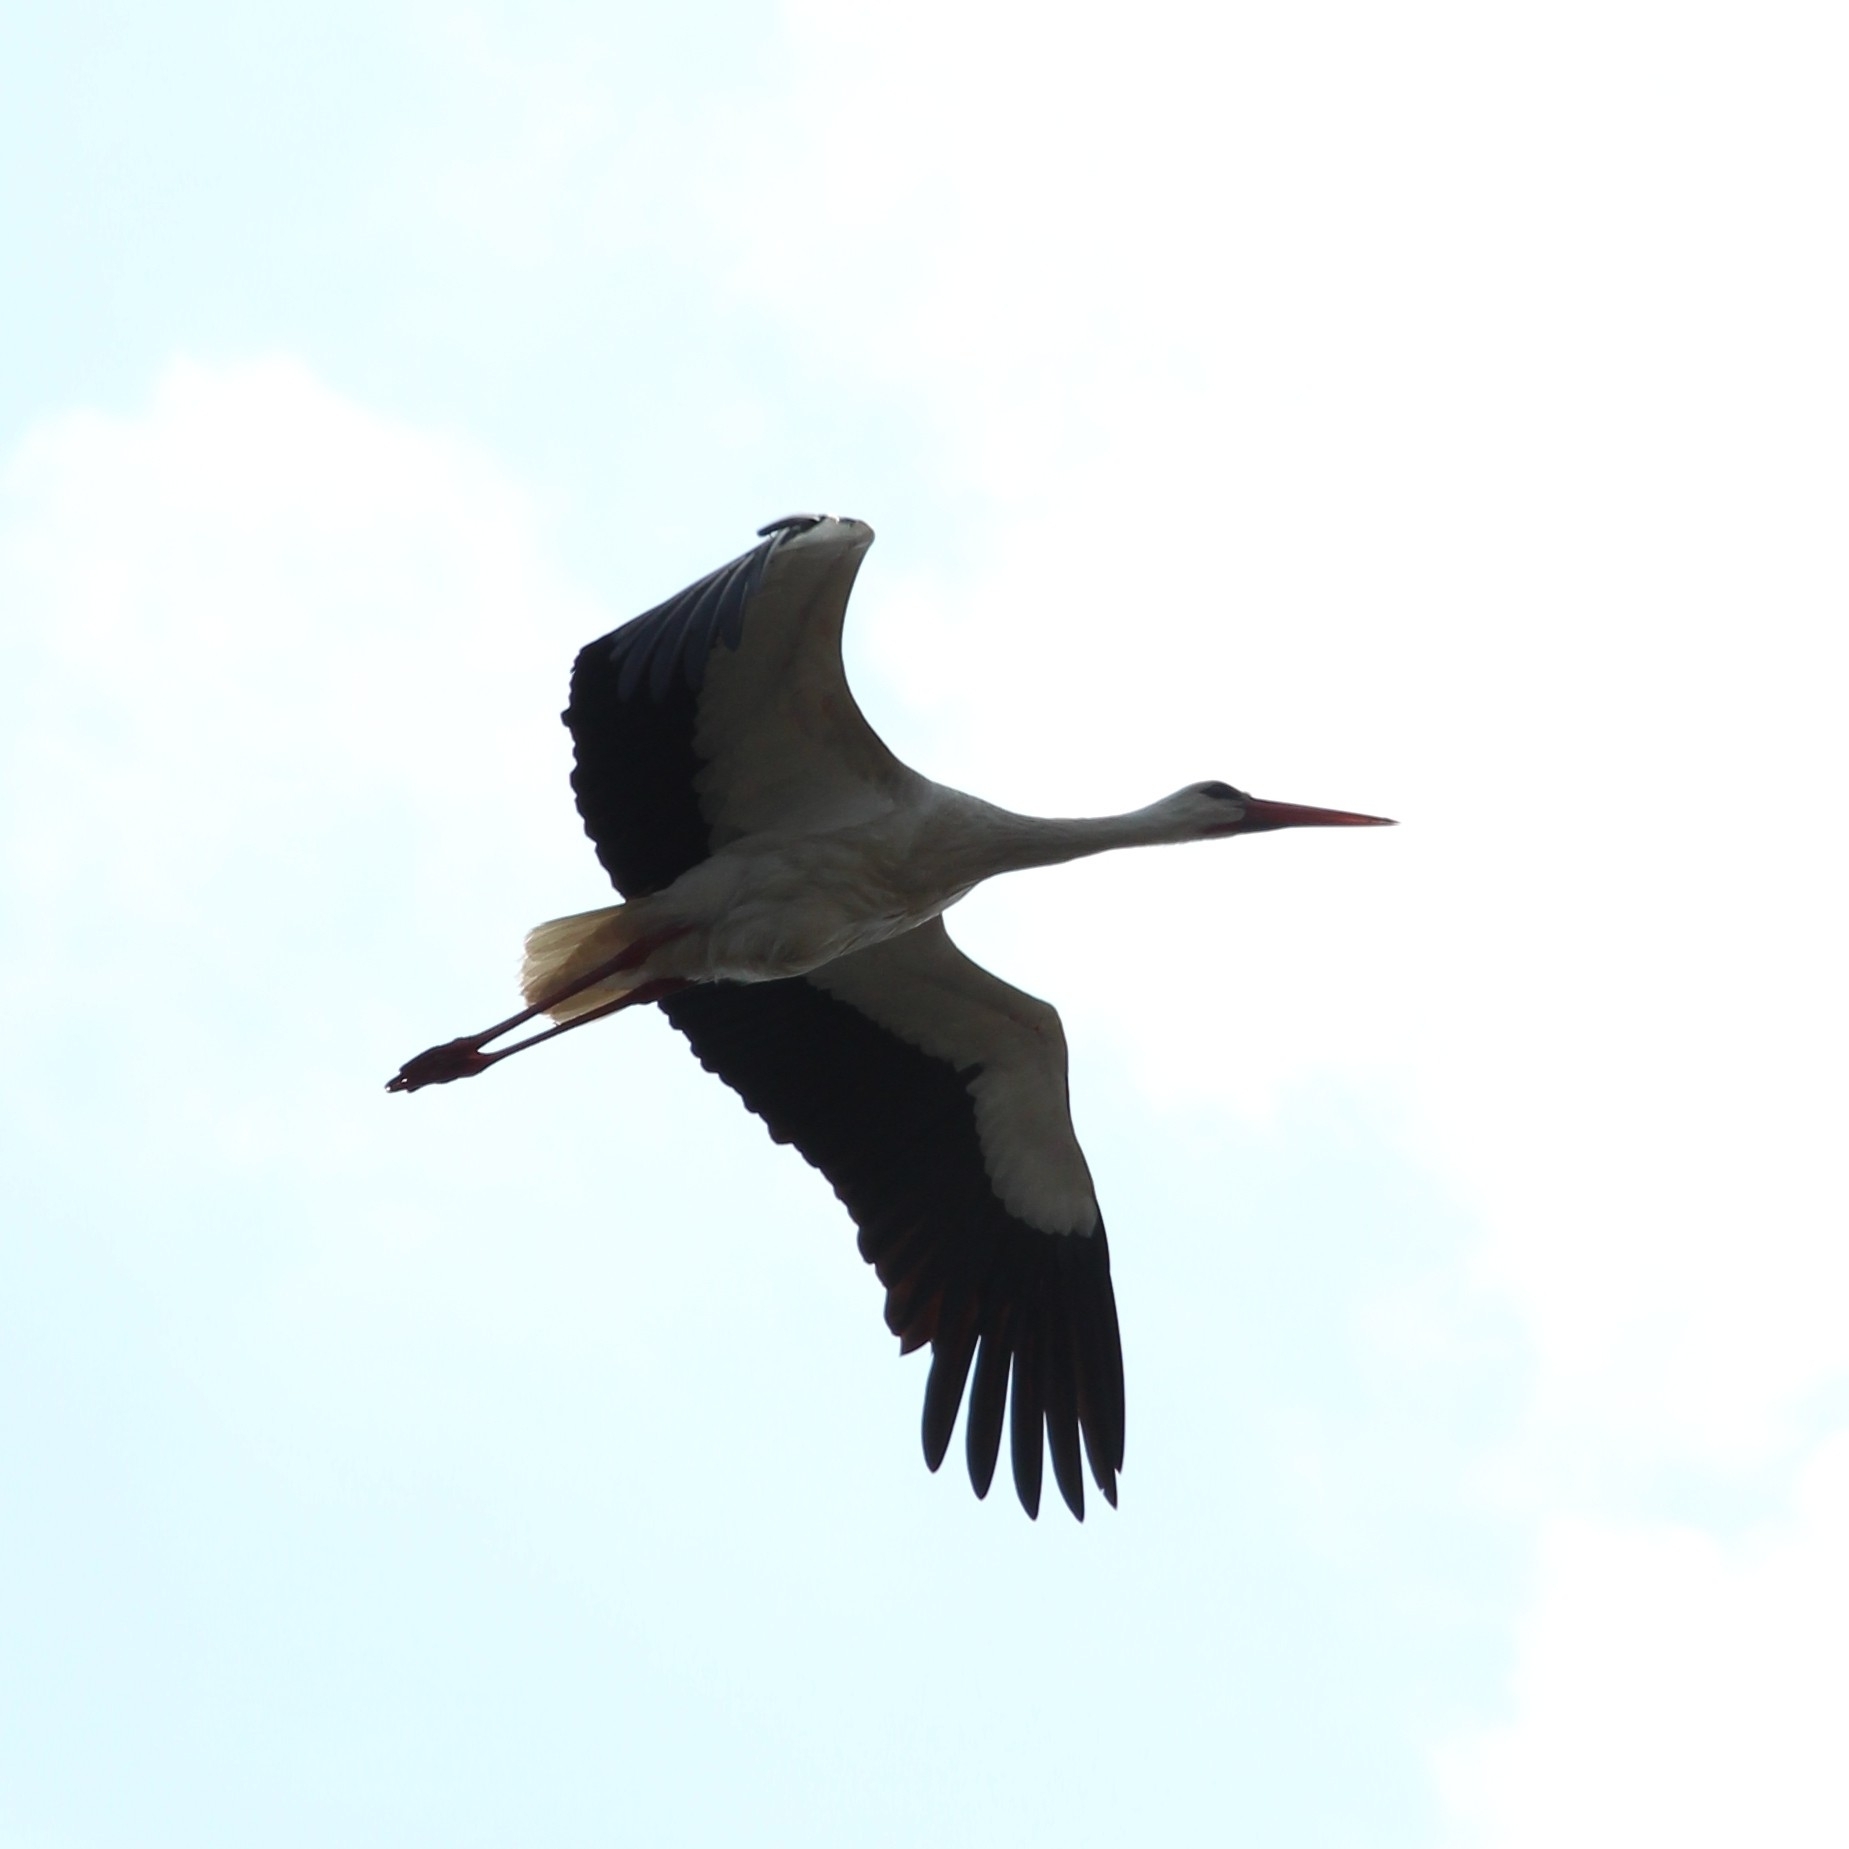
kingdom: Animalia
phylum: Chordata
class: Aves
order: Ciconiiformes
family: Ciconiidae
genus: Ciconia
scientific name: Ciconia ciconia
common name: White stork
